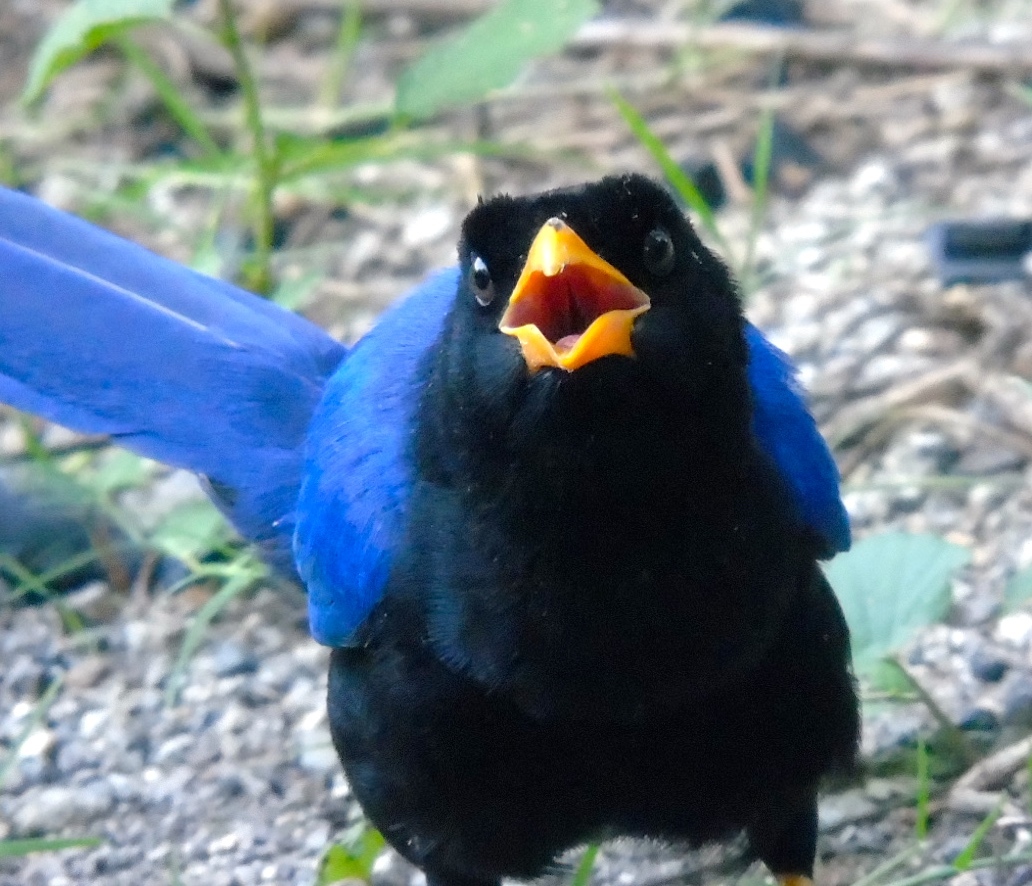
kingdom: Animalia
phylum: Chordata
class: Aves
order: Passeriformes
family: Corvidae
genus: Cyanocorax
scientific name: Cyanocorax beecheii
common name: Purplish-backed jay
